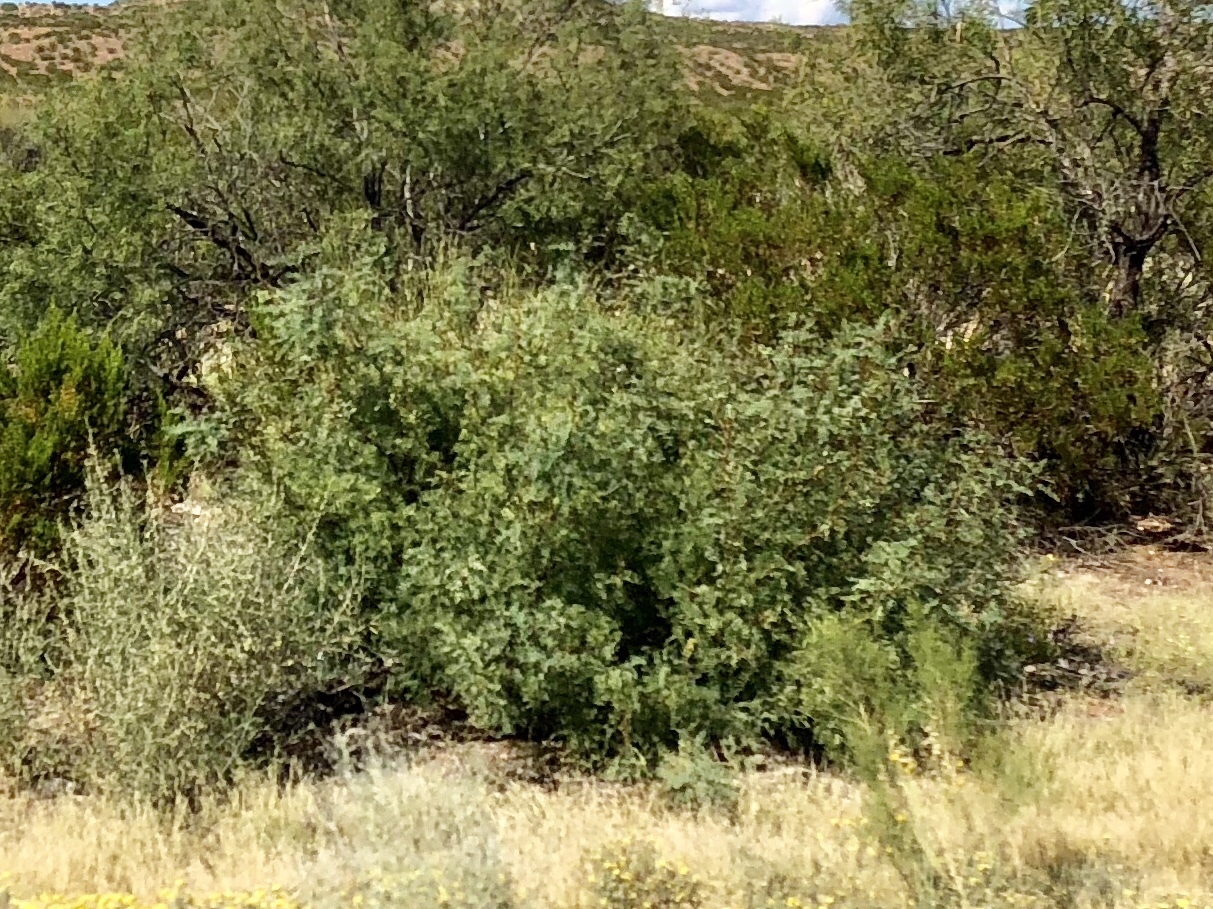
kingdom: Plantae
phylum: Tracheophyta
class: Magnoliopsida
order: Fabales
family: Fabaceae
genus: Prosopis
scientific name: Prosopis glandulosa
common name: Honey mesquite
